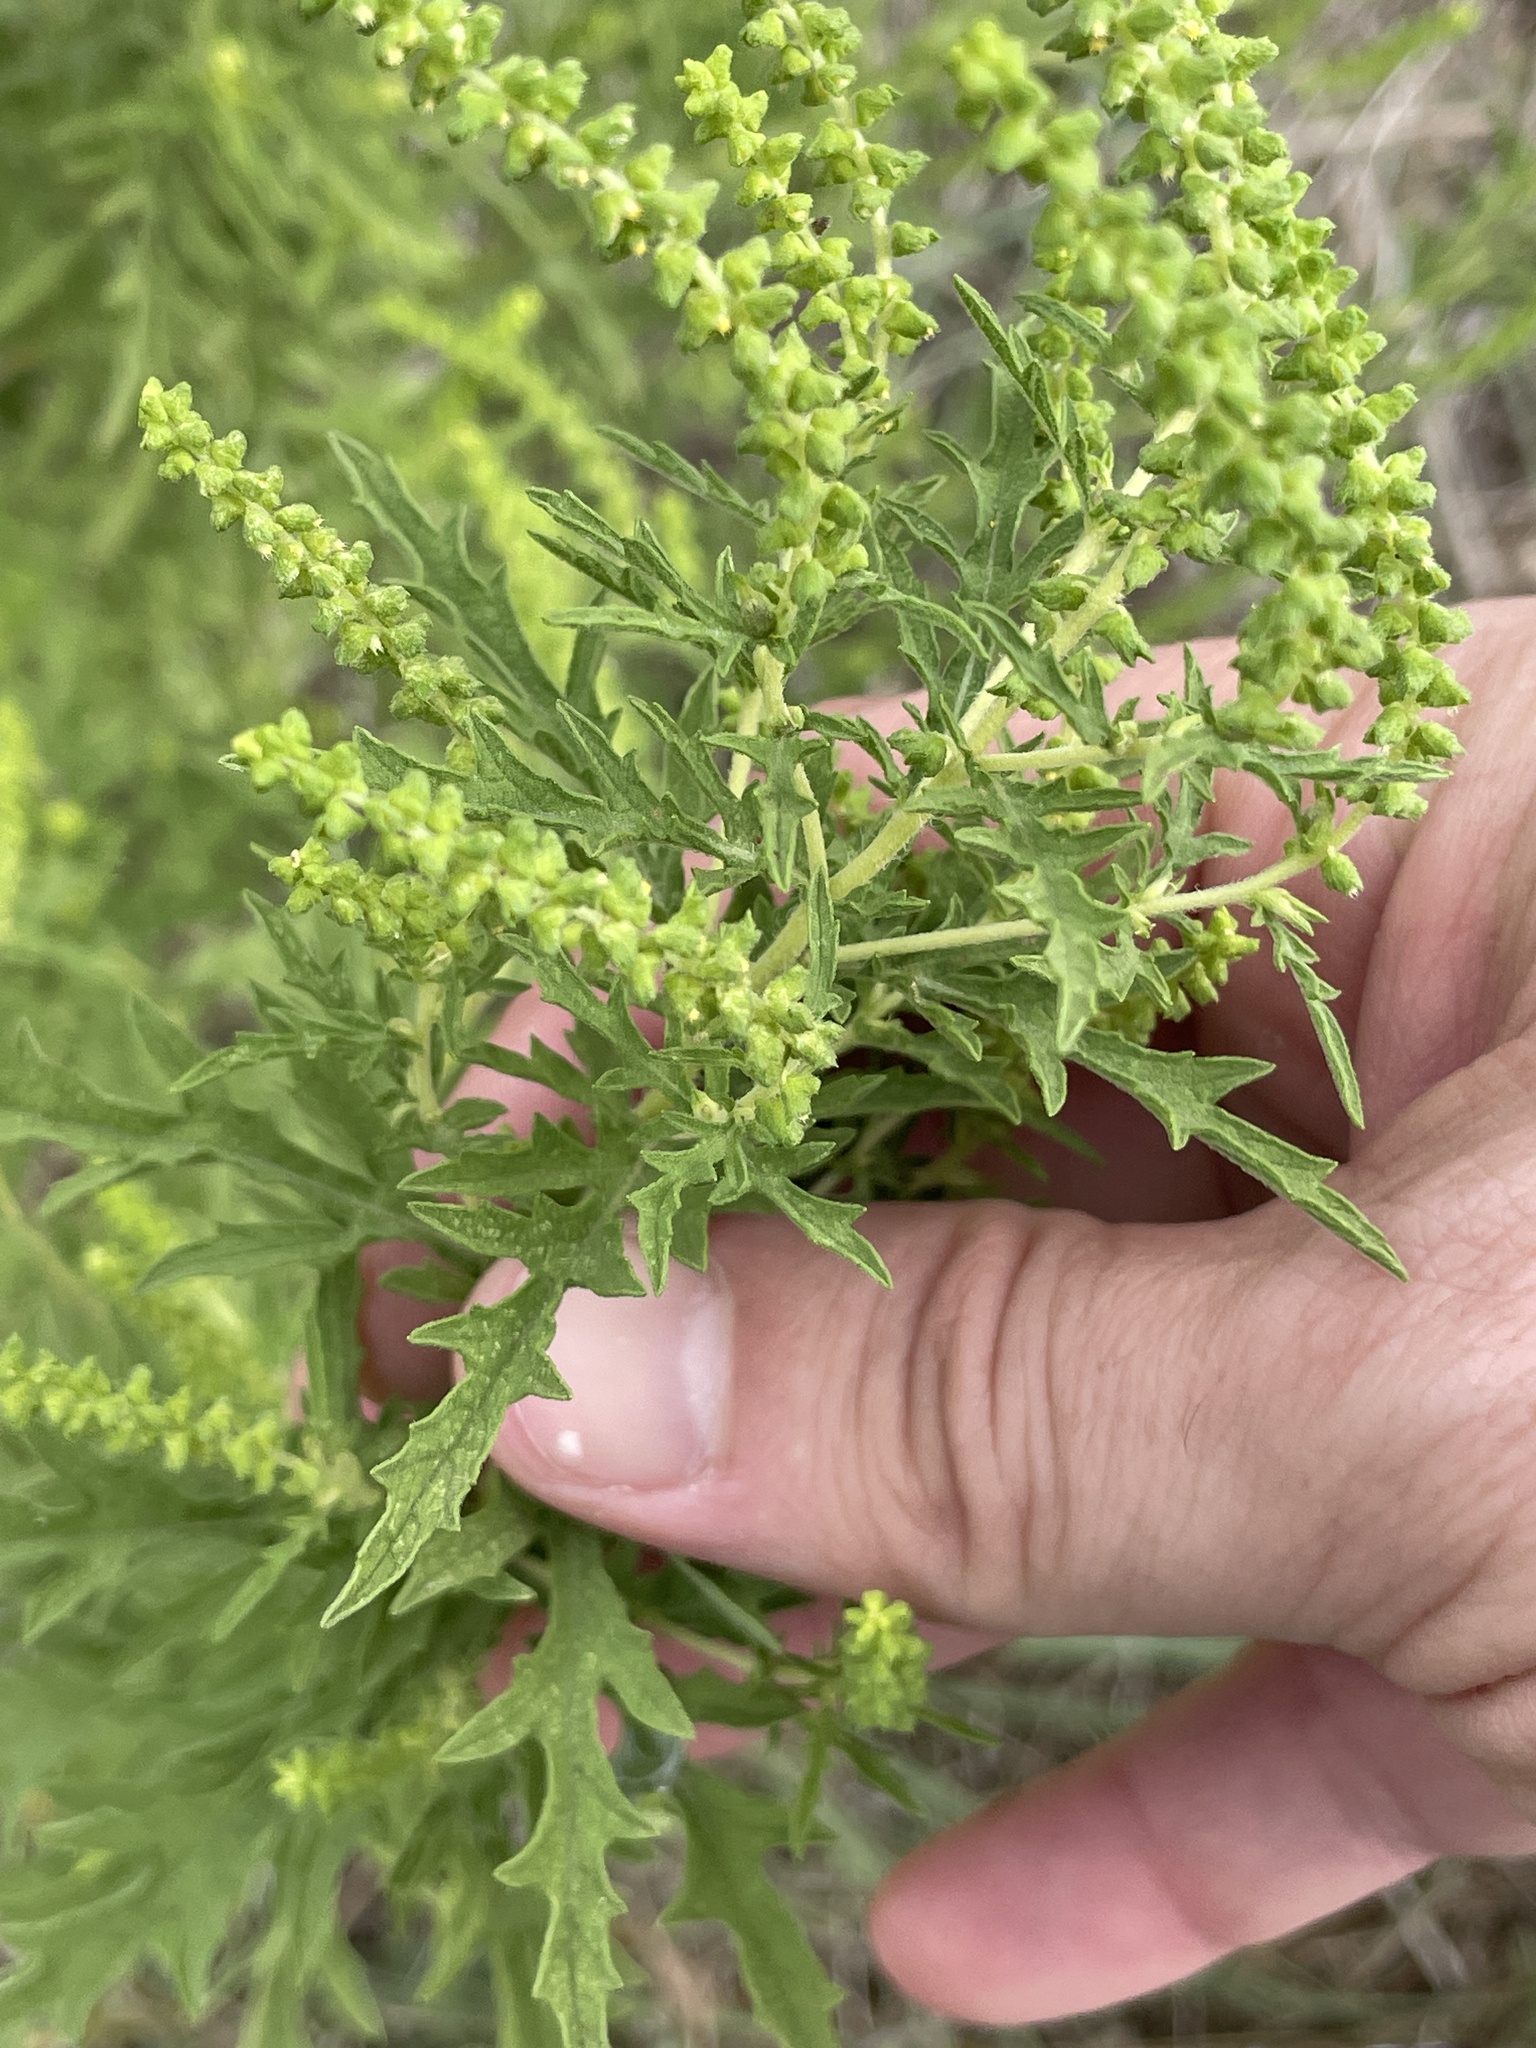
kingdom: Plantae
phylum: Tracheophyta
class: Magnoliopsida
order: Asterales
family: Asteraceae
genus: Ambrosia
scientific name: Ambrosia psilostachya
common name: Perennial ragweed
